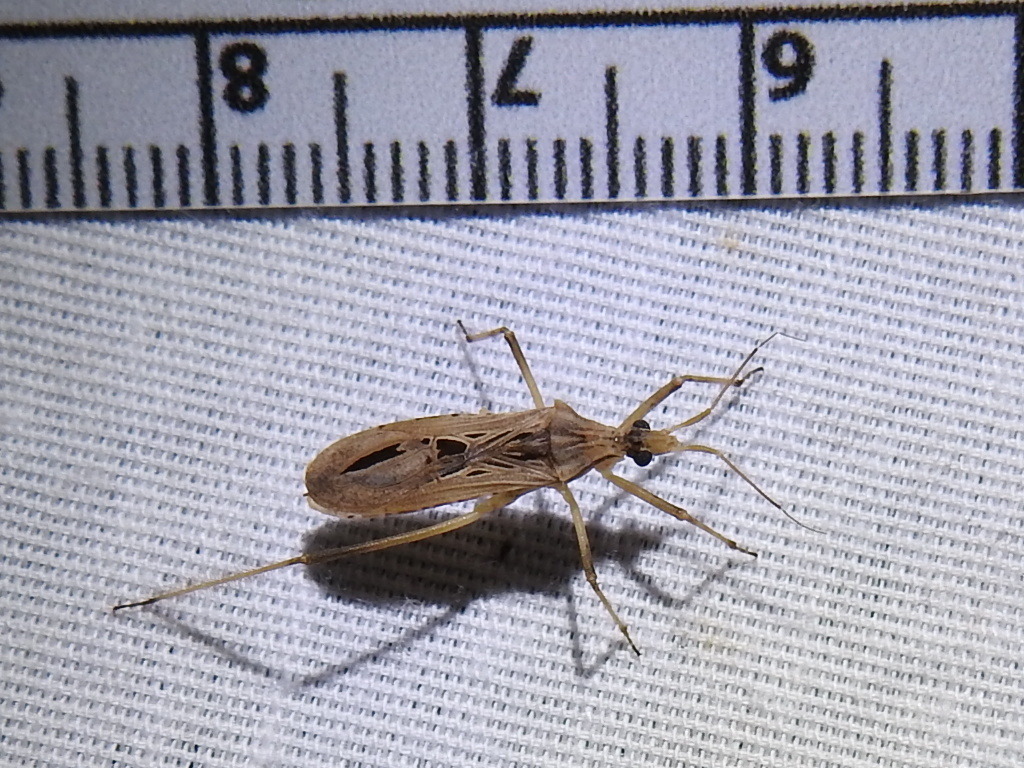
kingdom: Animalia
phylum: Arthropoda
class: Insecta
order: Hemiptera
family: Reduviidae
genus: Narvesus
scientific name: Narvesus carolinensis
